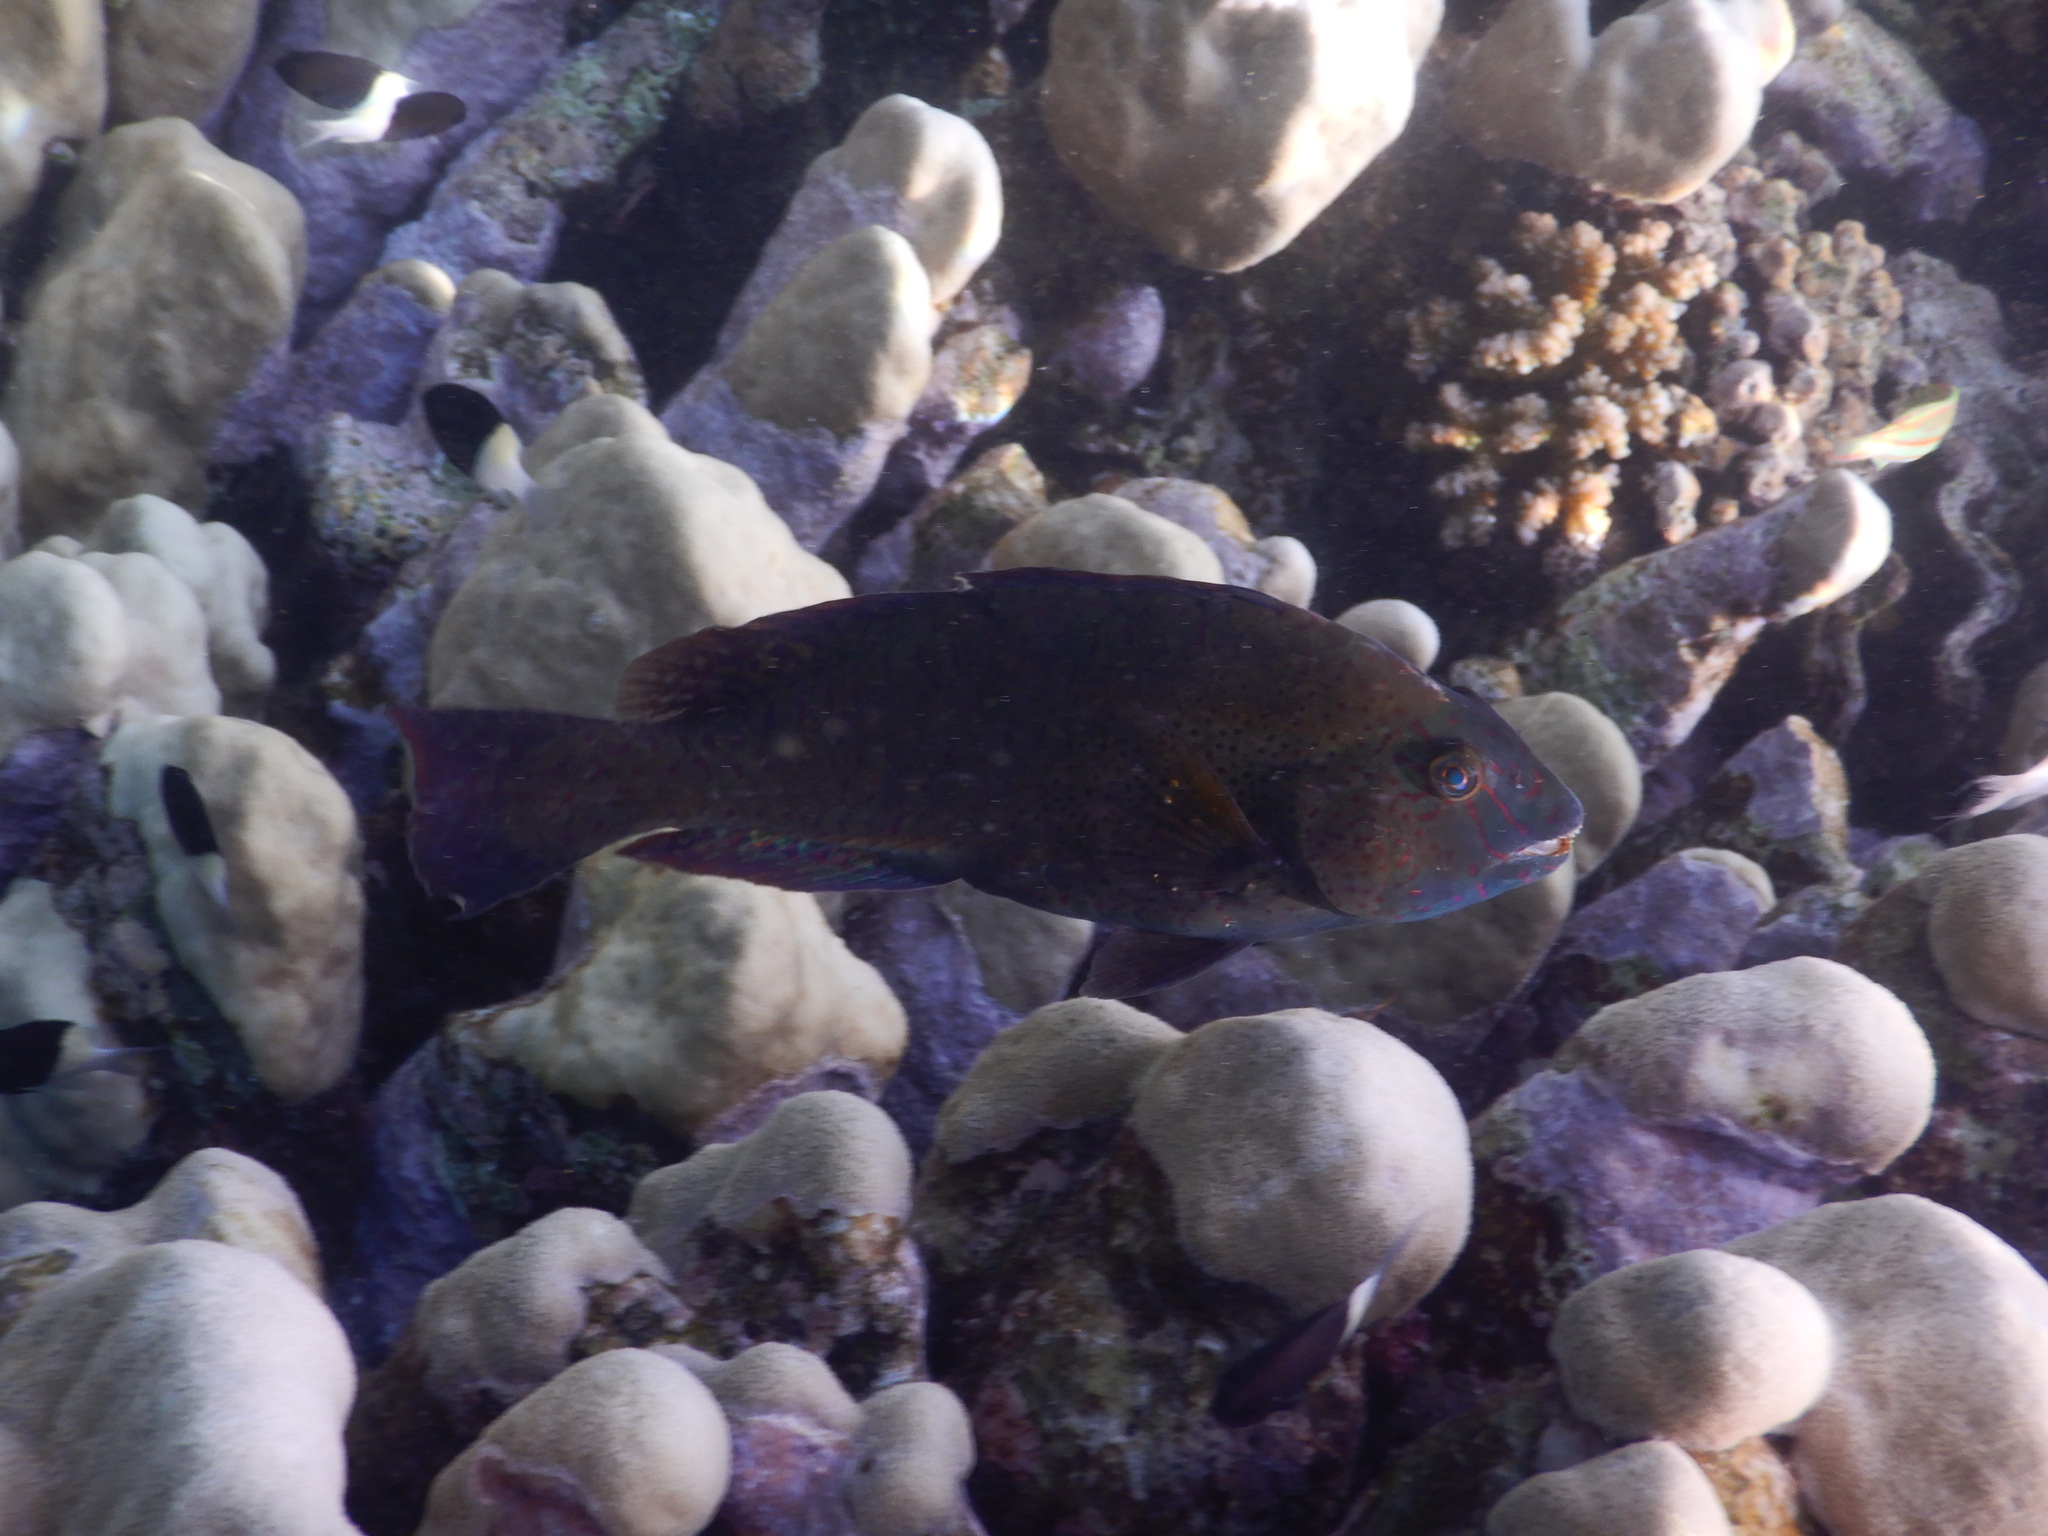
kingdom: Animalia
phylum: Chordata
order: Perciformes
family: Scaridae
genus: Calotomus
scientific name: Calotomus viridescens
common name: Dotted parrotfish
